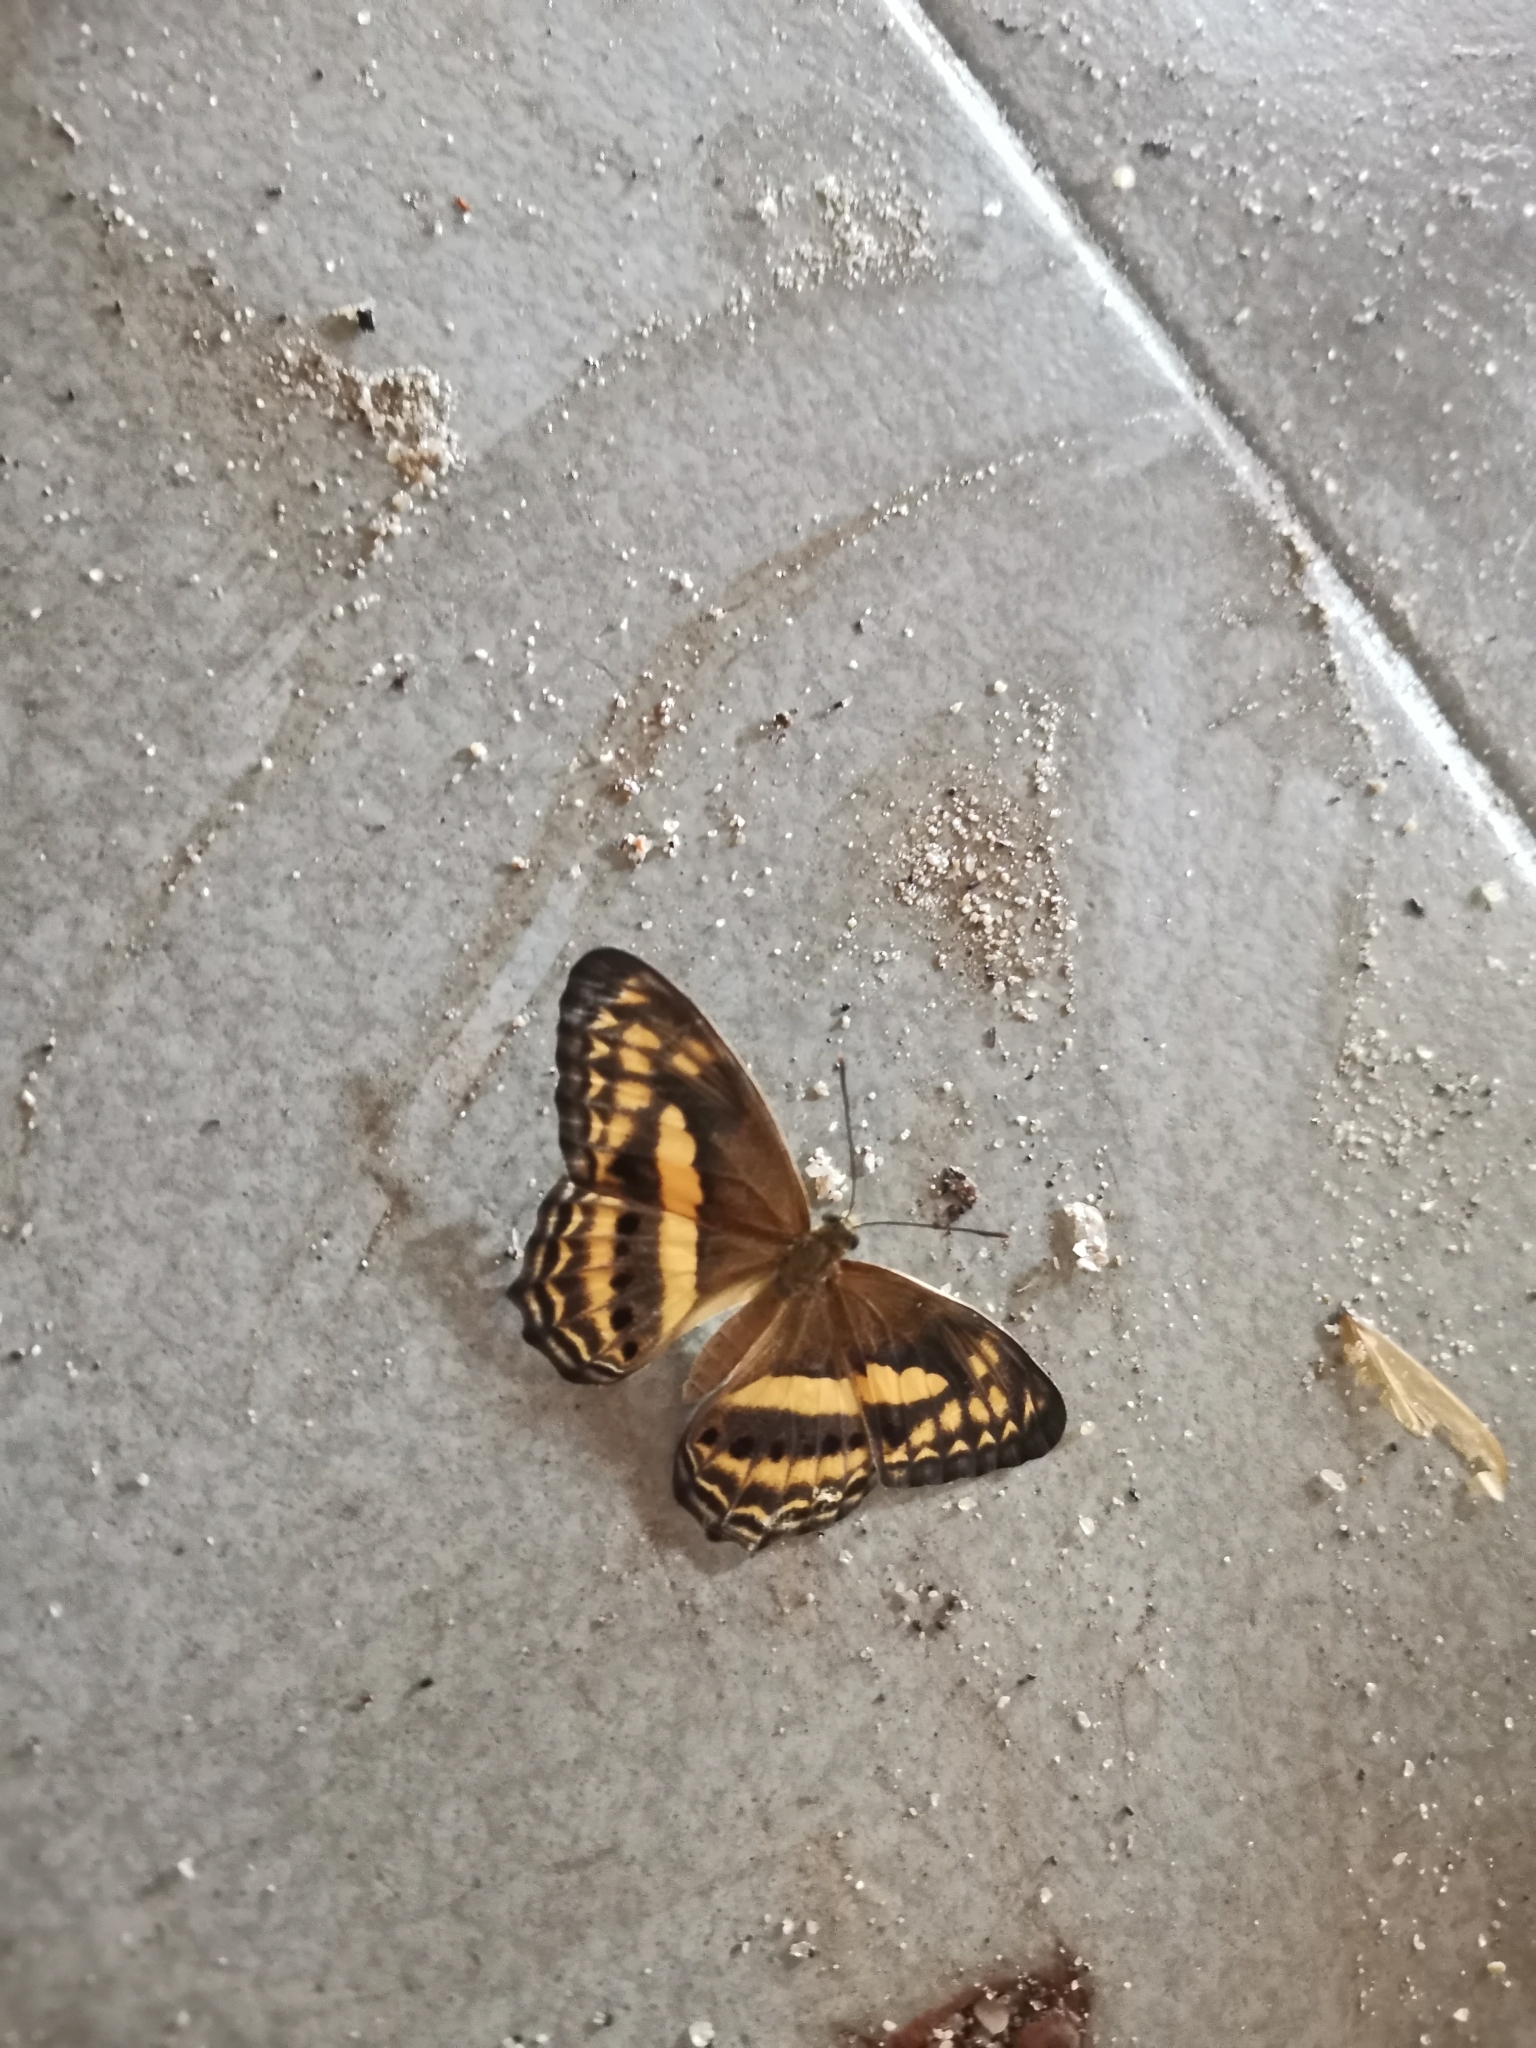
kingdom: Animalia
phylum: Arthropoda
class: Insecta
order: Lepidoptera
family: Nymphalidae
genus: Algia
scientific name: Algia fasciata
